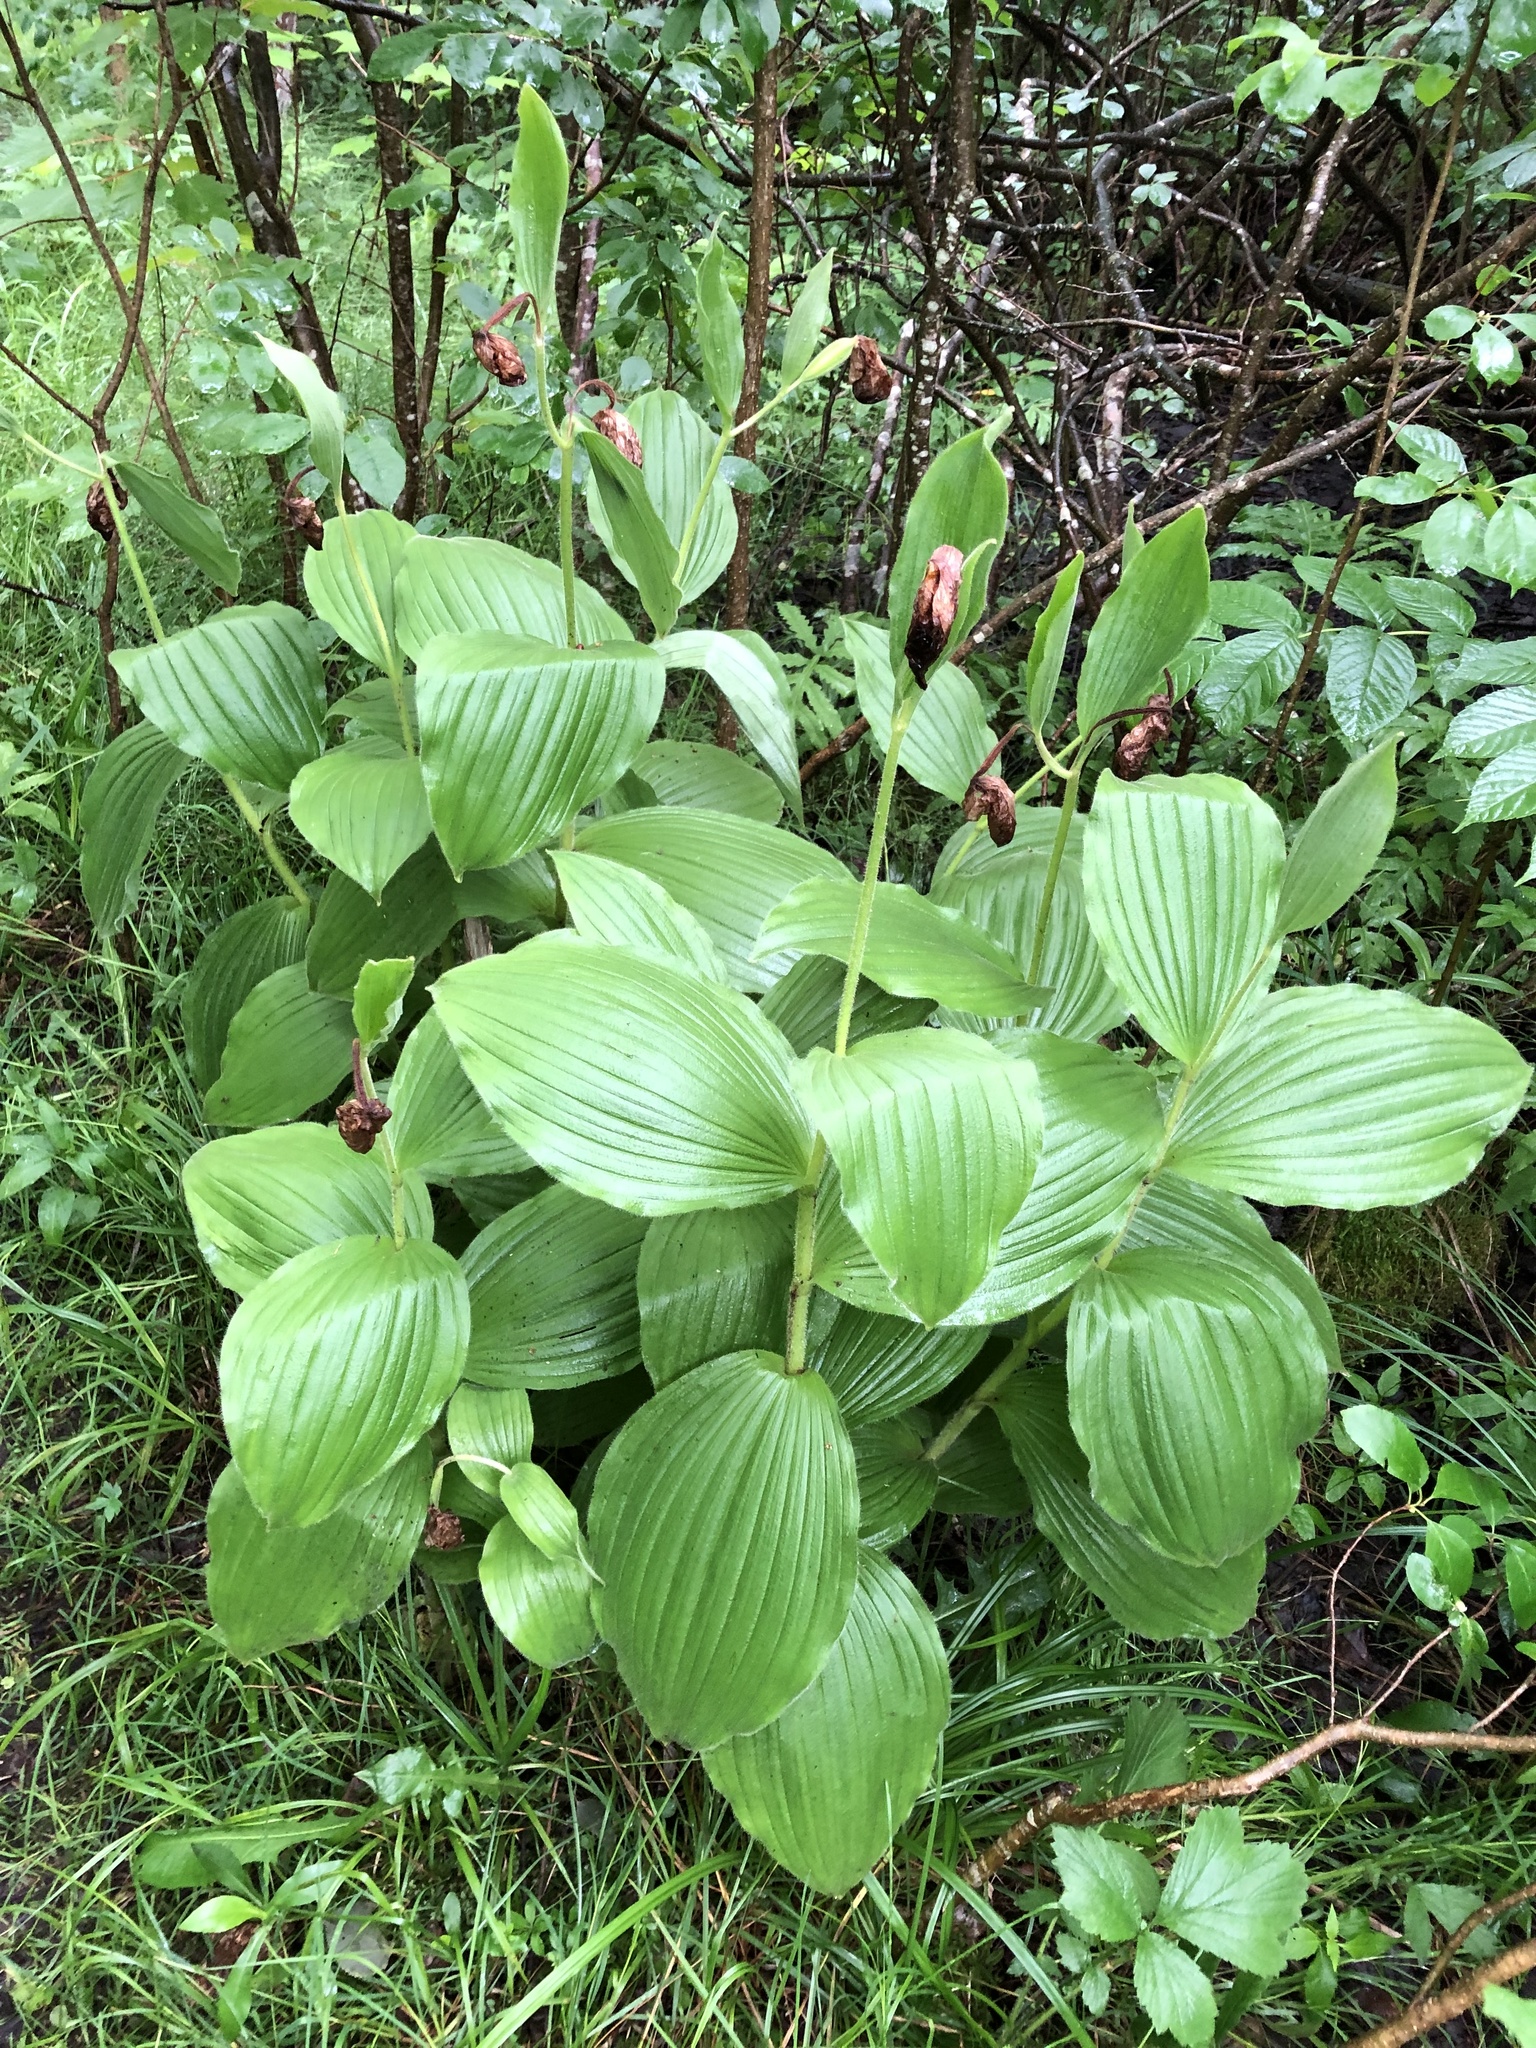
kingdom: Plantae
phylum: Tracheophyta
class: Liliopsida
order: Asparagales
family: Orchidaceae
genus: Cypripedium
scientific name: Cypripedium reginae
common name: Queen lady's-slipper
